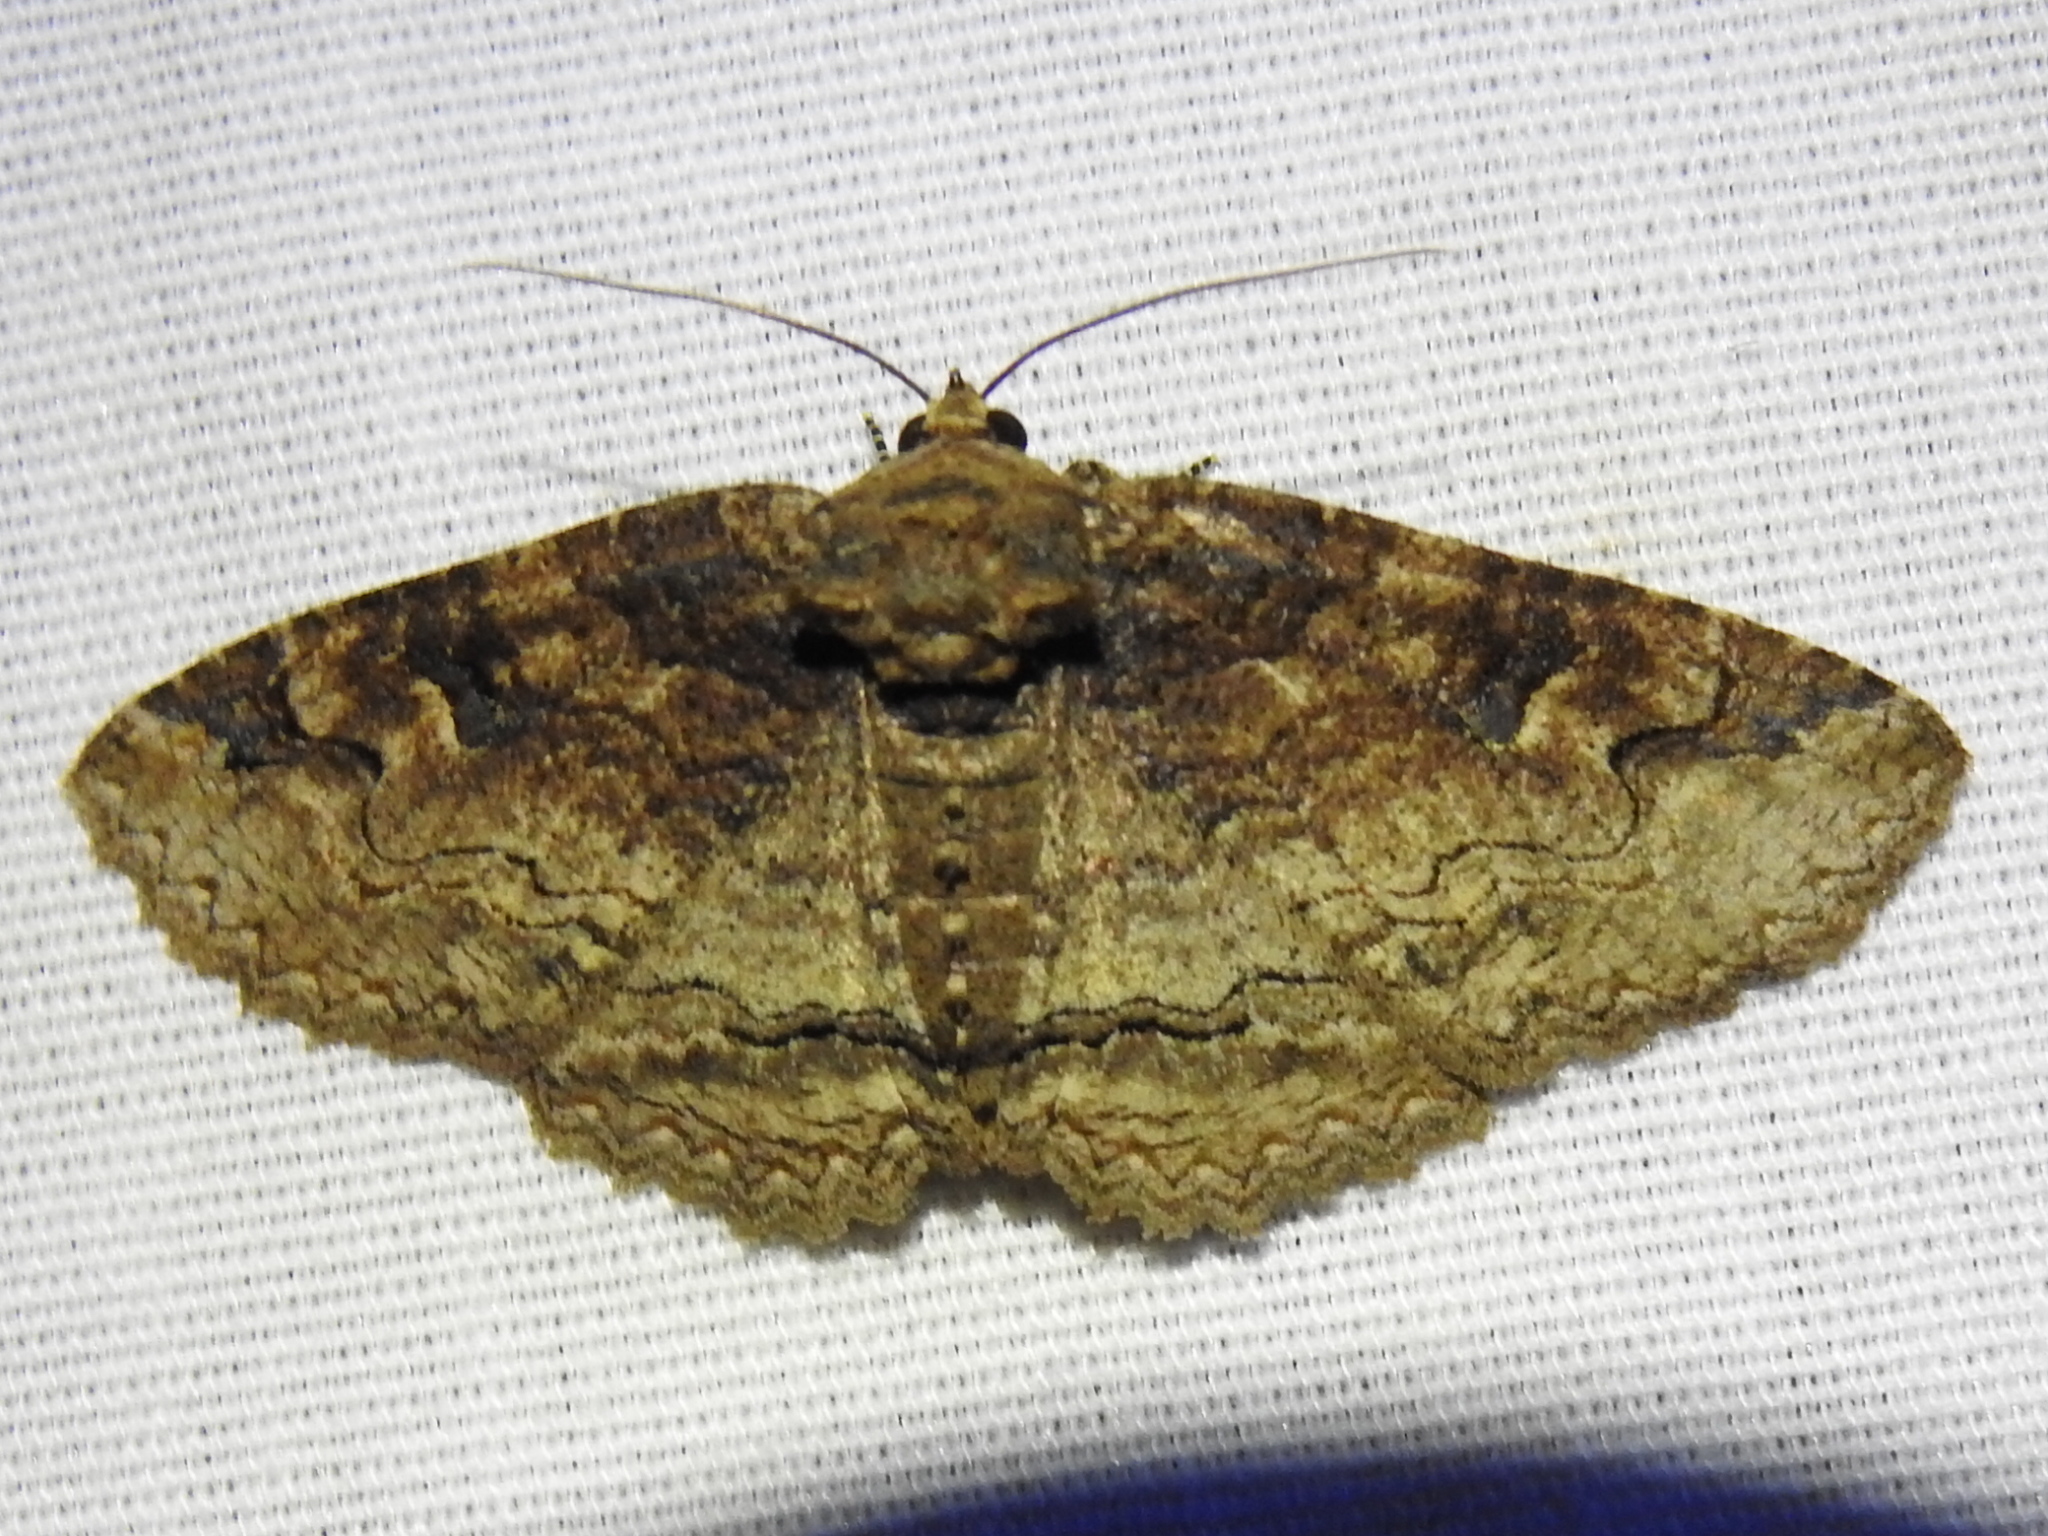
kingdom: Animalia
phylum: Arthropoda
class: Insecta
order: Lepidoptera
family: Erebidae
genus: Zale
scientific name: Zale galbanata
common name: Maple zale
